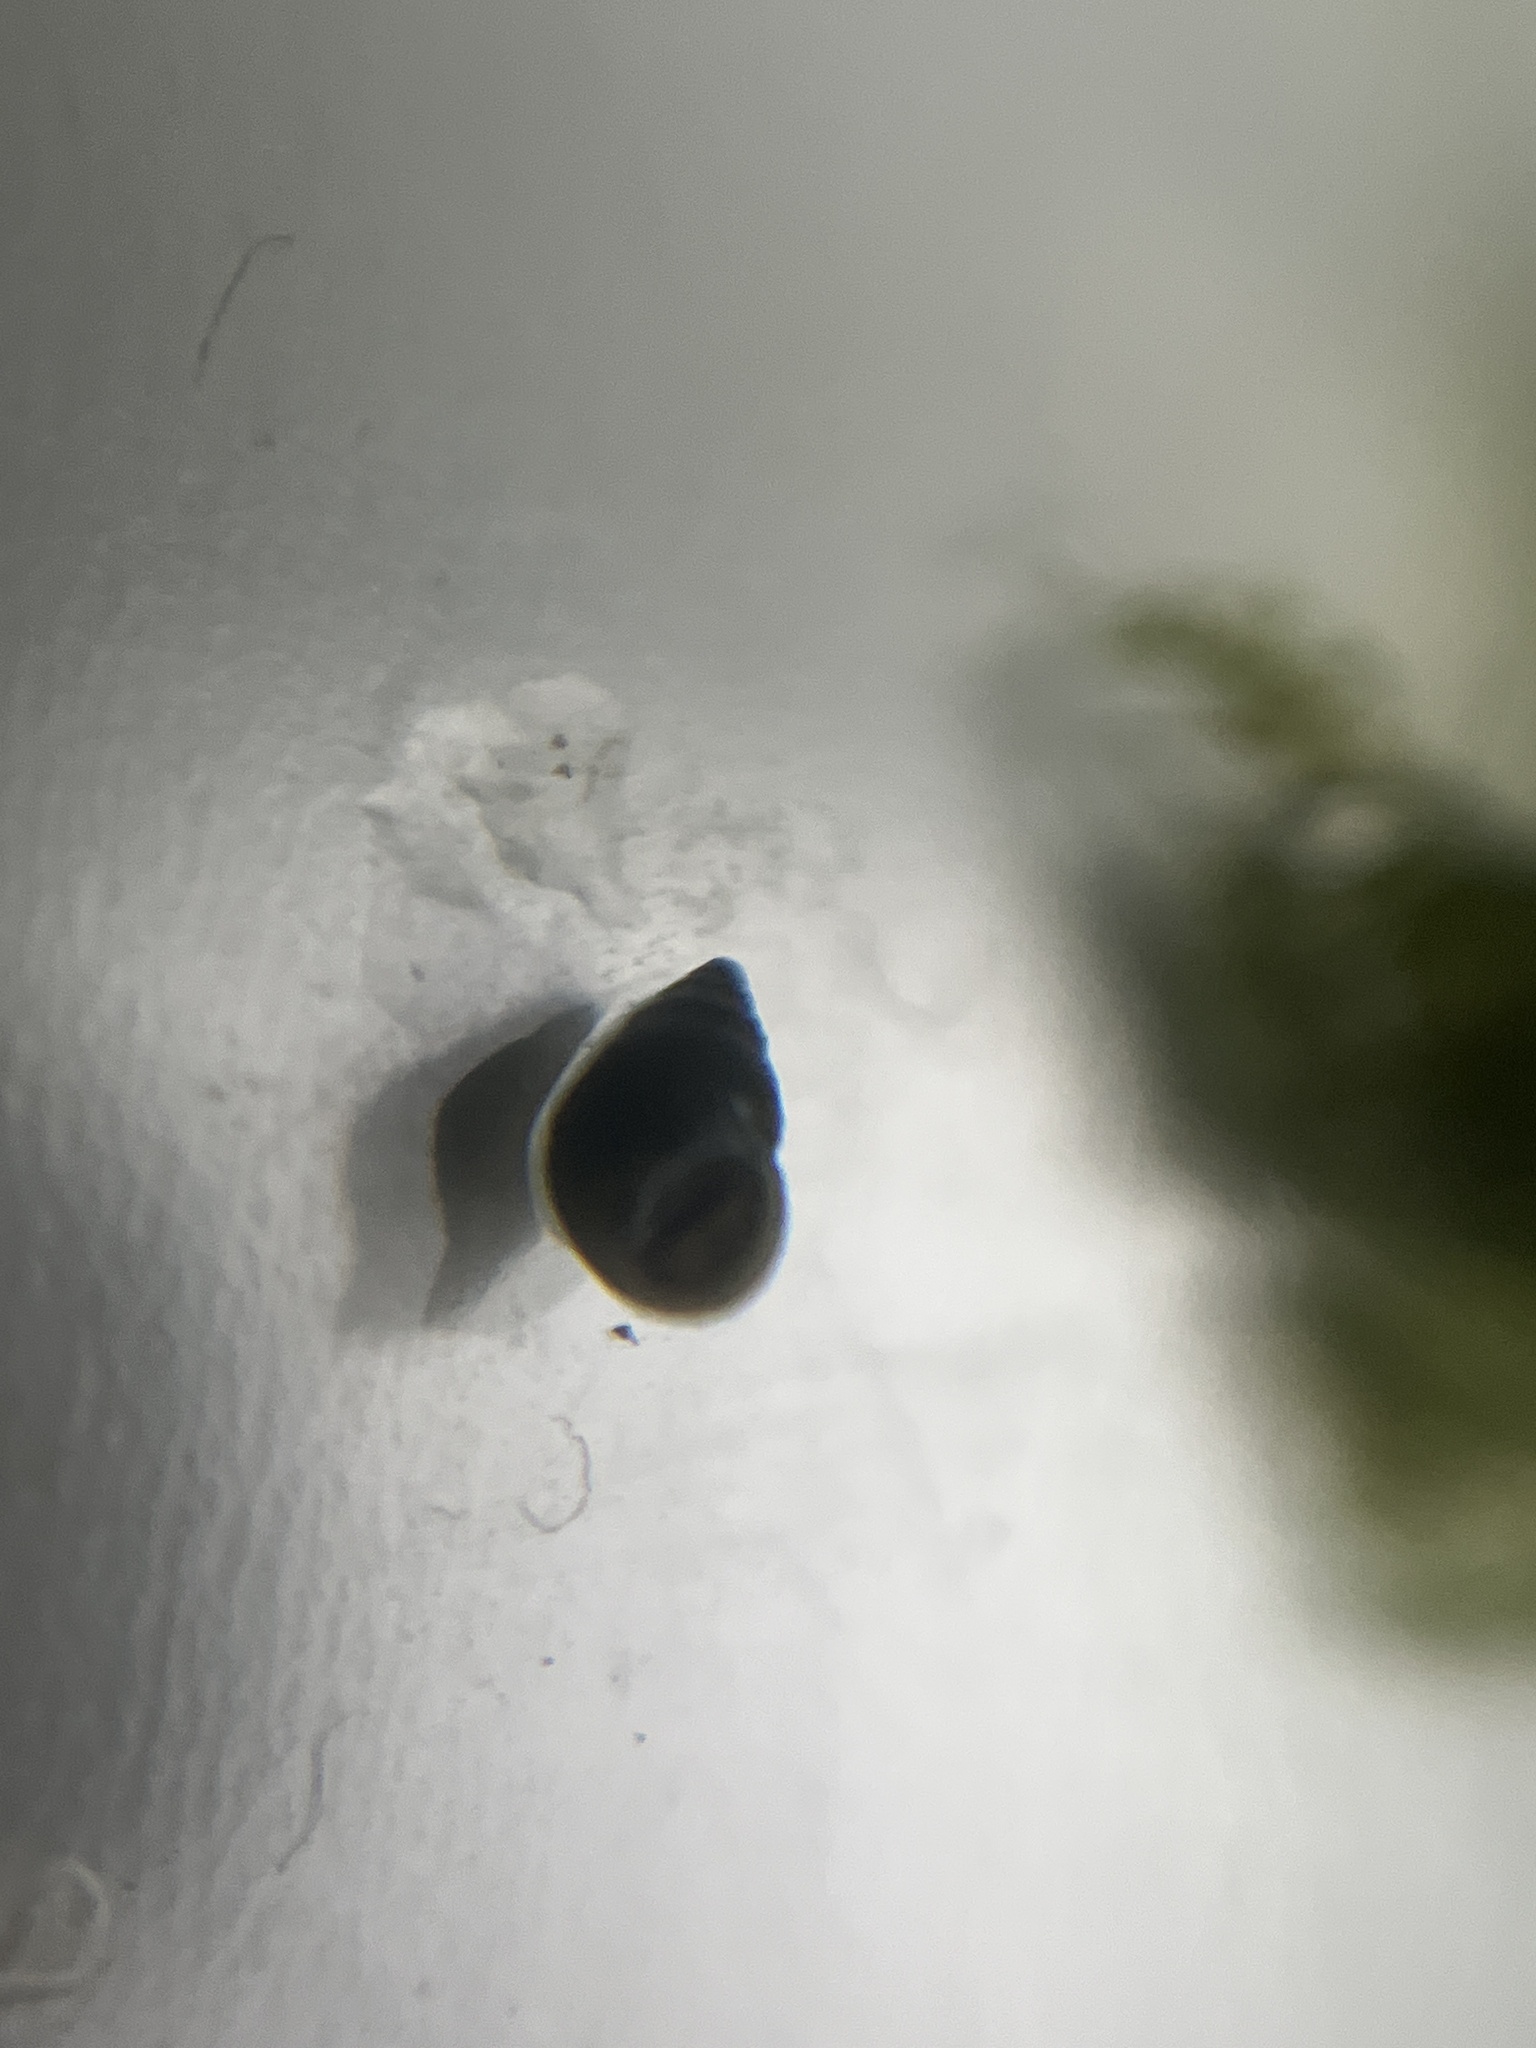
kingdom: Animalia
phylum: Mollusca
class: Gastropoda
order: Littorinimorpha
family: Hydrobiidae
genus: Peringia
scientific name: Peringia ulvae
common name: Laver spire shell
